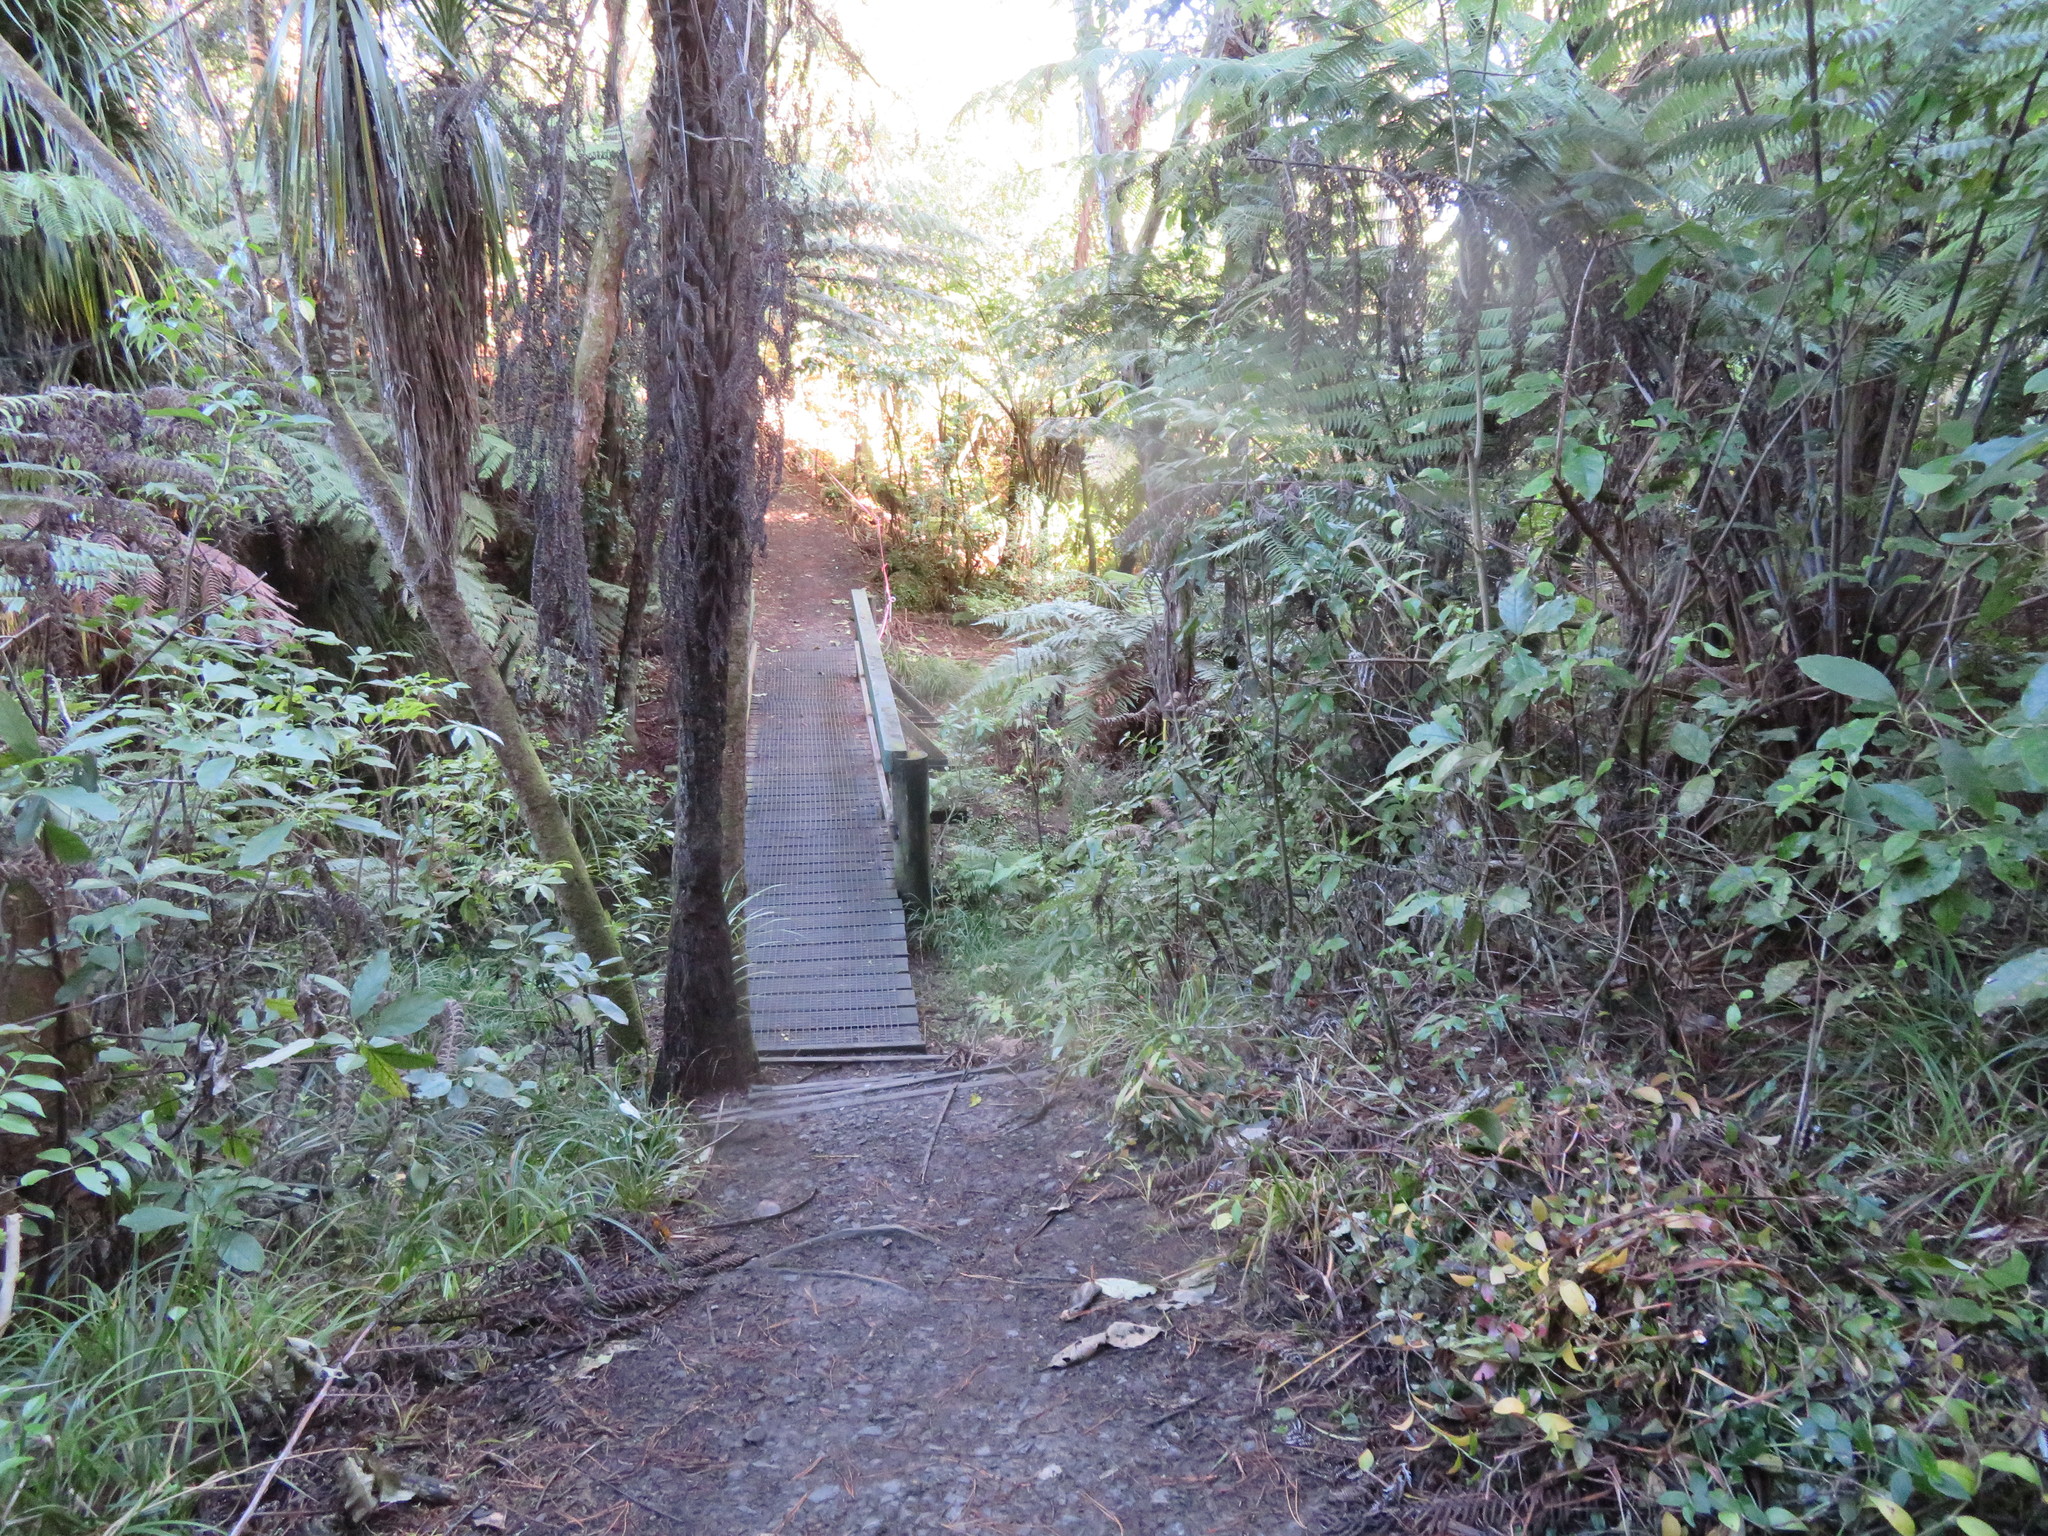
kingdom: Plantae
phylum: Tracheophyta
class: Liliopsida
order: Commelinales
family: Commelinaceae
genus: Tradescantia
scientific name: Tradescantia fluminensis
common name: Wandering-jew
